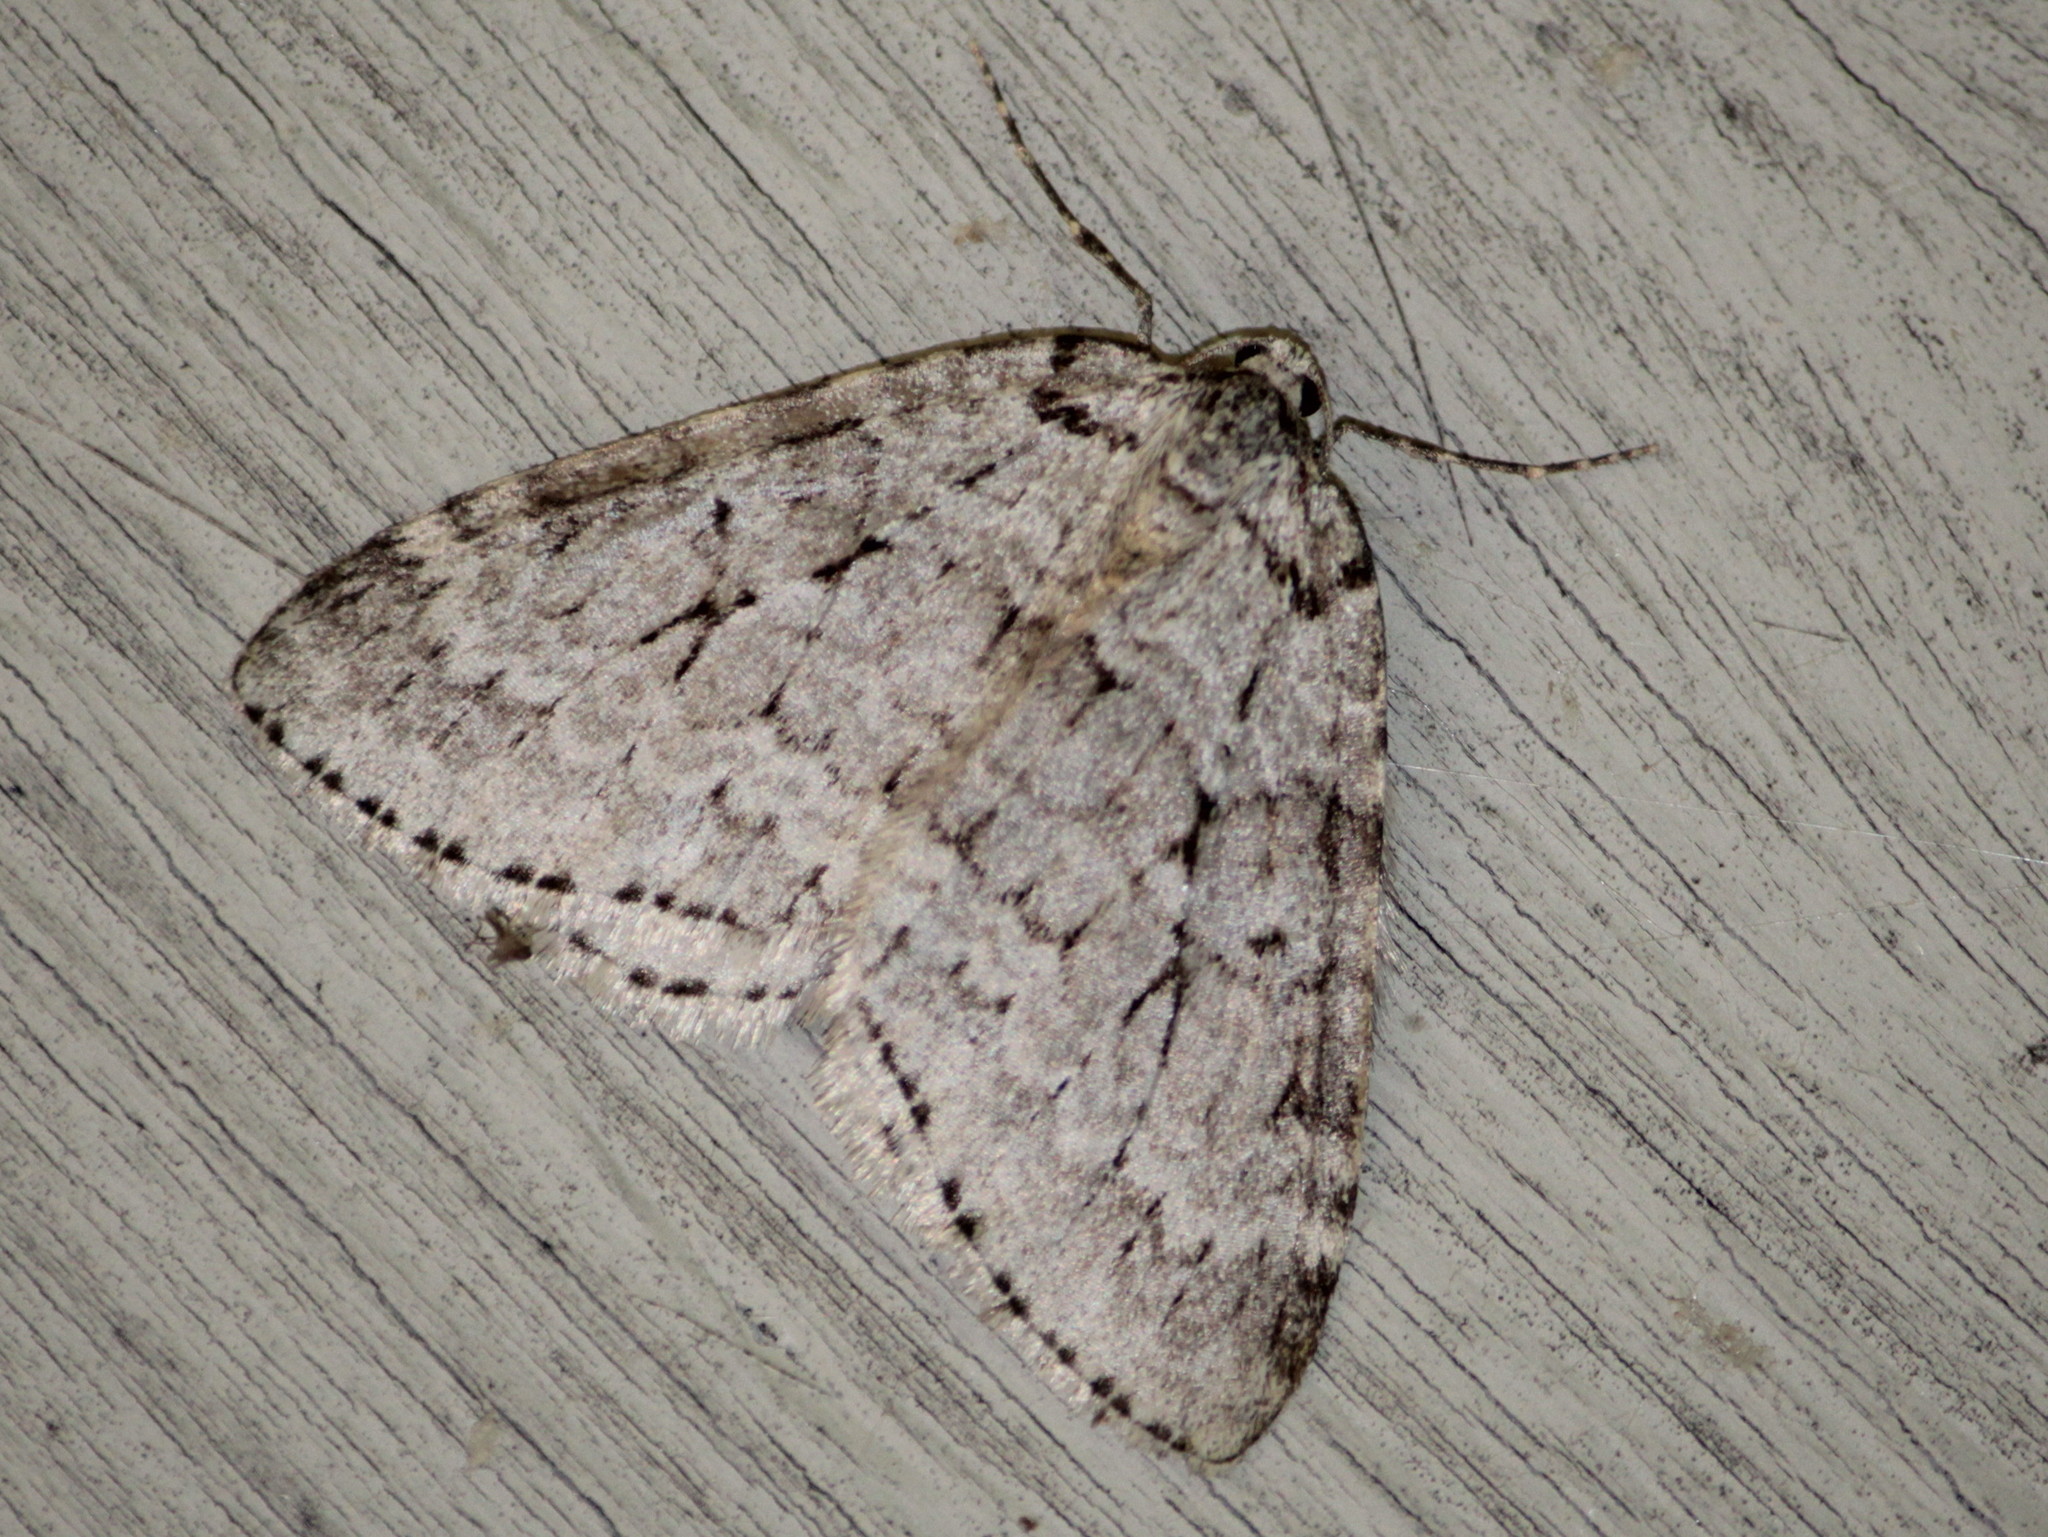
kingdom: Animalia
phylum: Arthropoda
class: Insecta
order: Lepidoptera
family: Geometridae
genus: Epirrita
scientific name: Epirrita autumnata
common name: Autumnal moth
